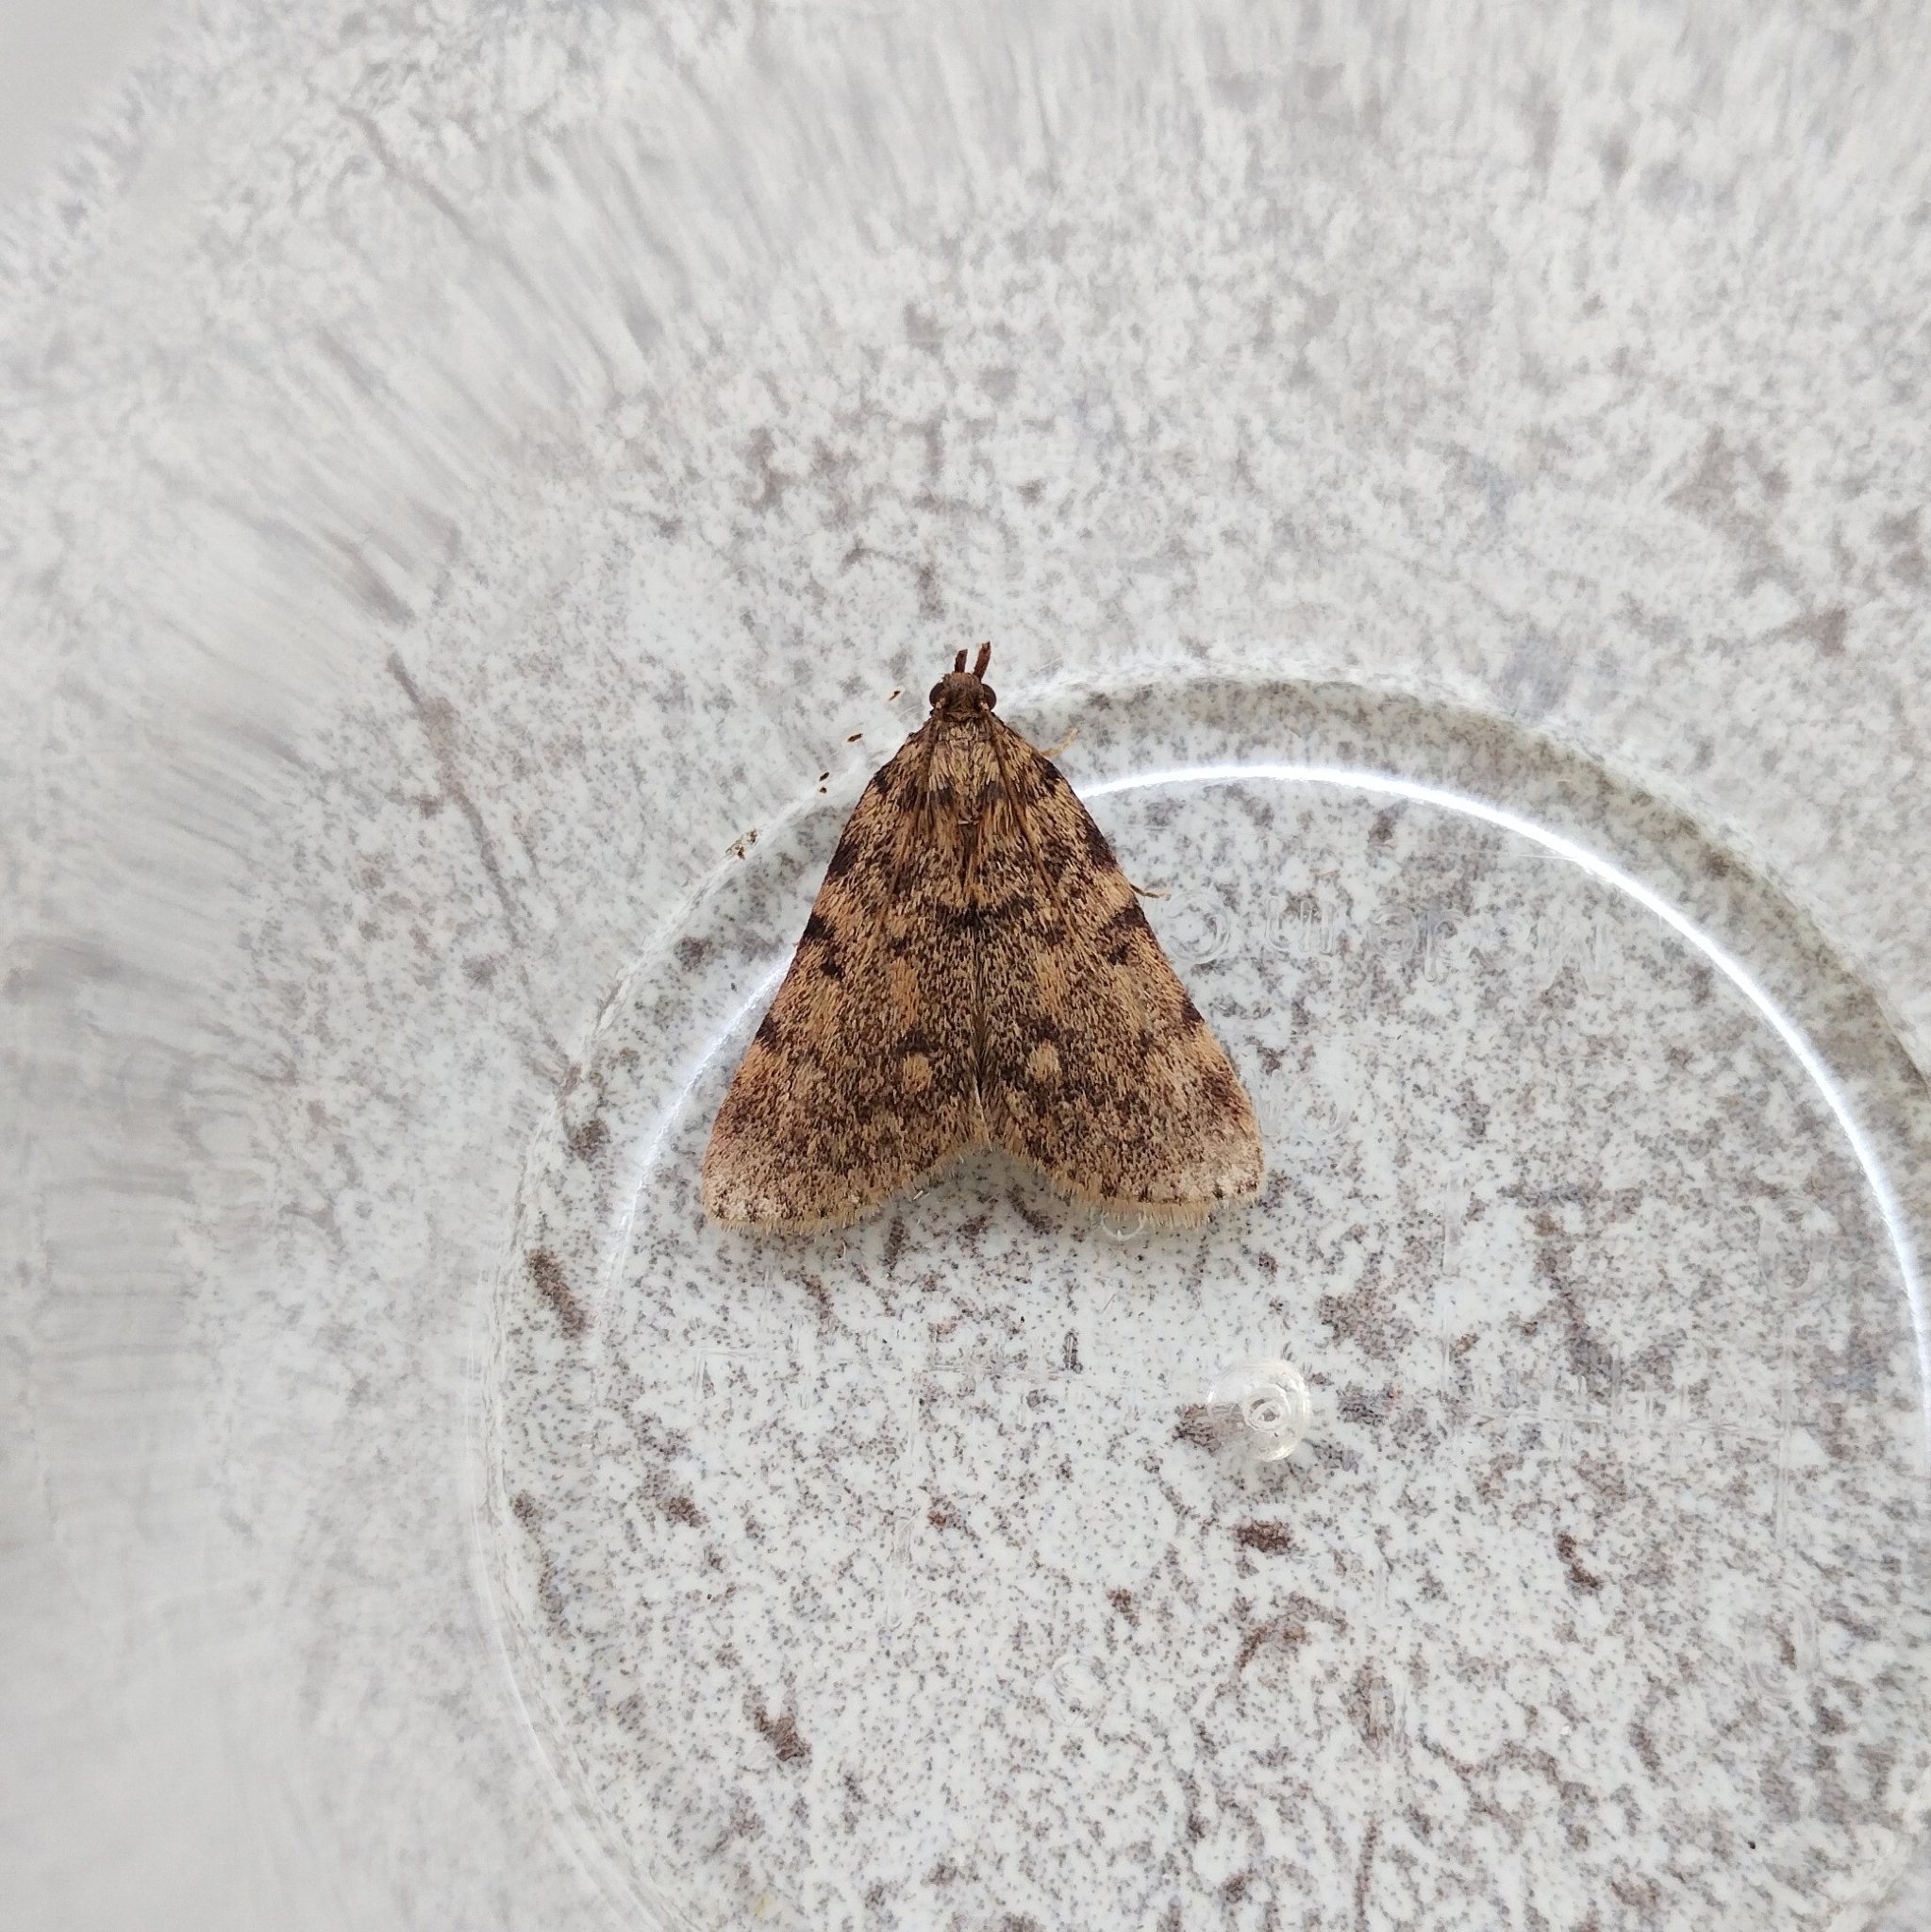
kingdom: Animalia
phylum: Arthropoda
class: Insecta
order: Lepidoptera
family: Pyralidae
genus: Aglossa
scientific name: Aglossa pinguinalis
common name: Large tabby
